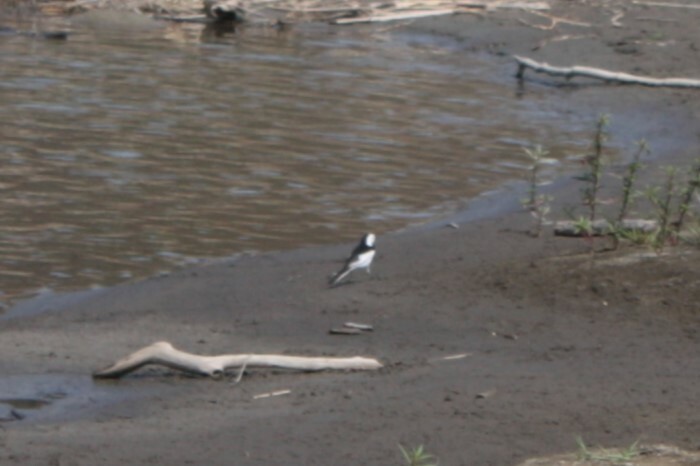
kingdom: Animalia
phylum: Chordata
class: Aves
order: Passeriformes
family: Motacillidae
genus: Motacilla
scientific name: Motacilla alba
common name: White wagtail
